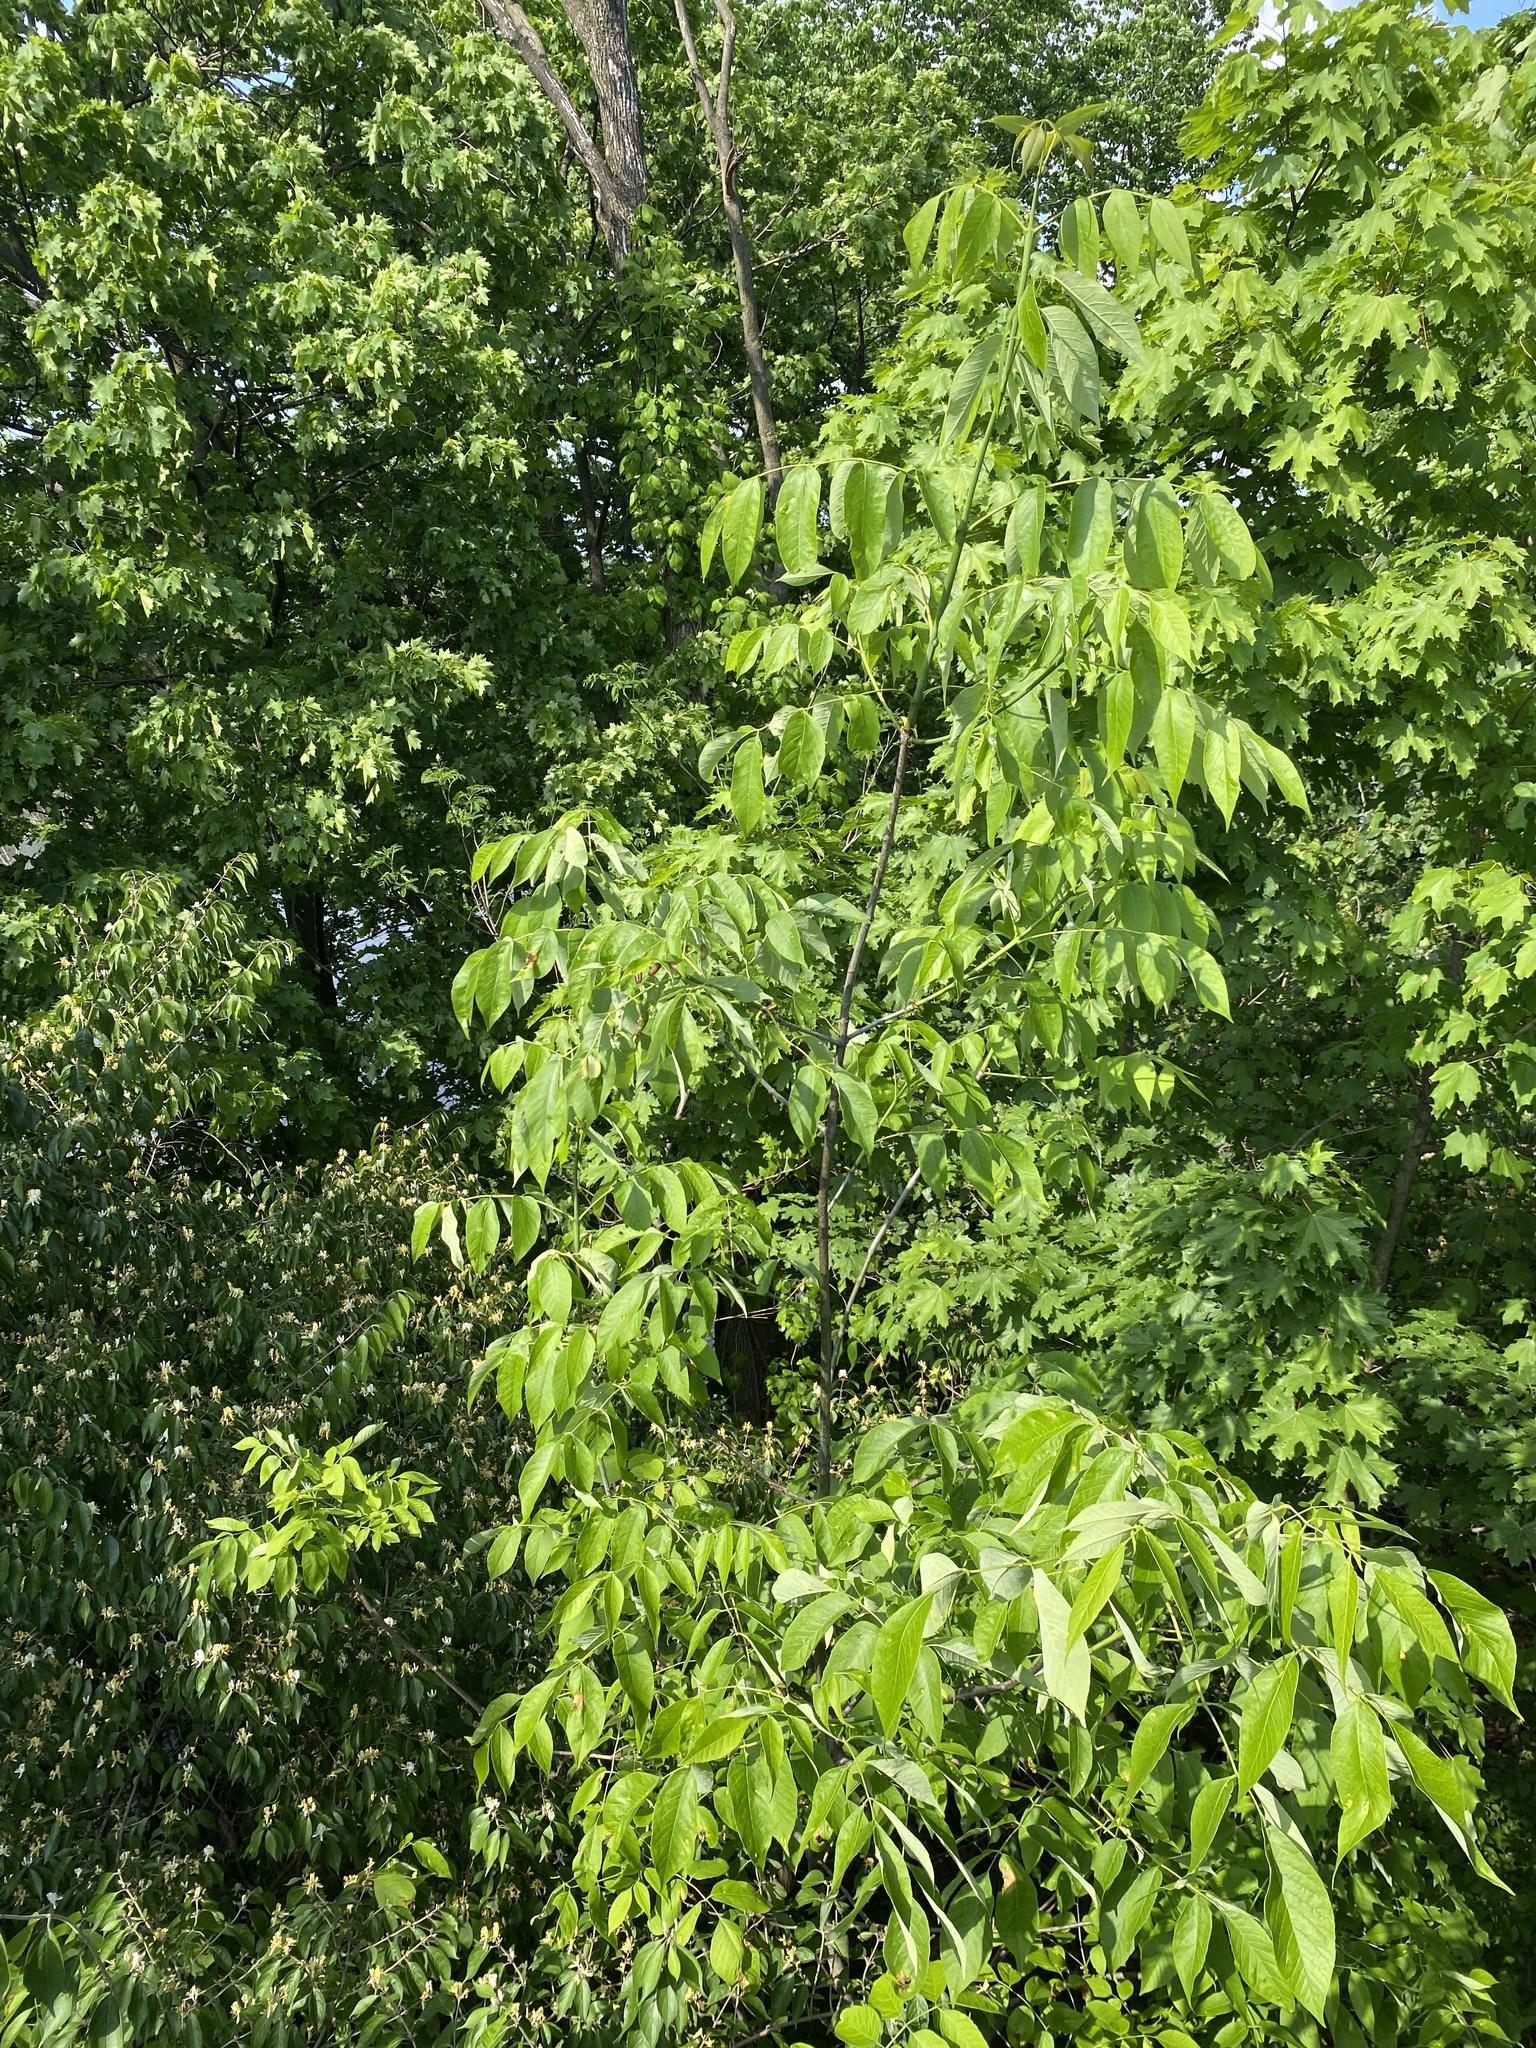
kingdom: Animalia
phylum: Arthropoda
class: Insecta
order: Diptera
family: Cecidomyiidae
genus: Dasineura
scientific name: Dasineura tumidosae
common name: Ash petiole gall midge
